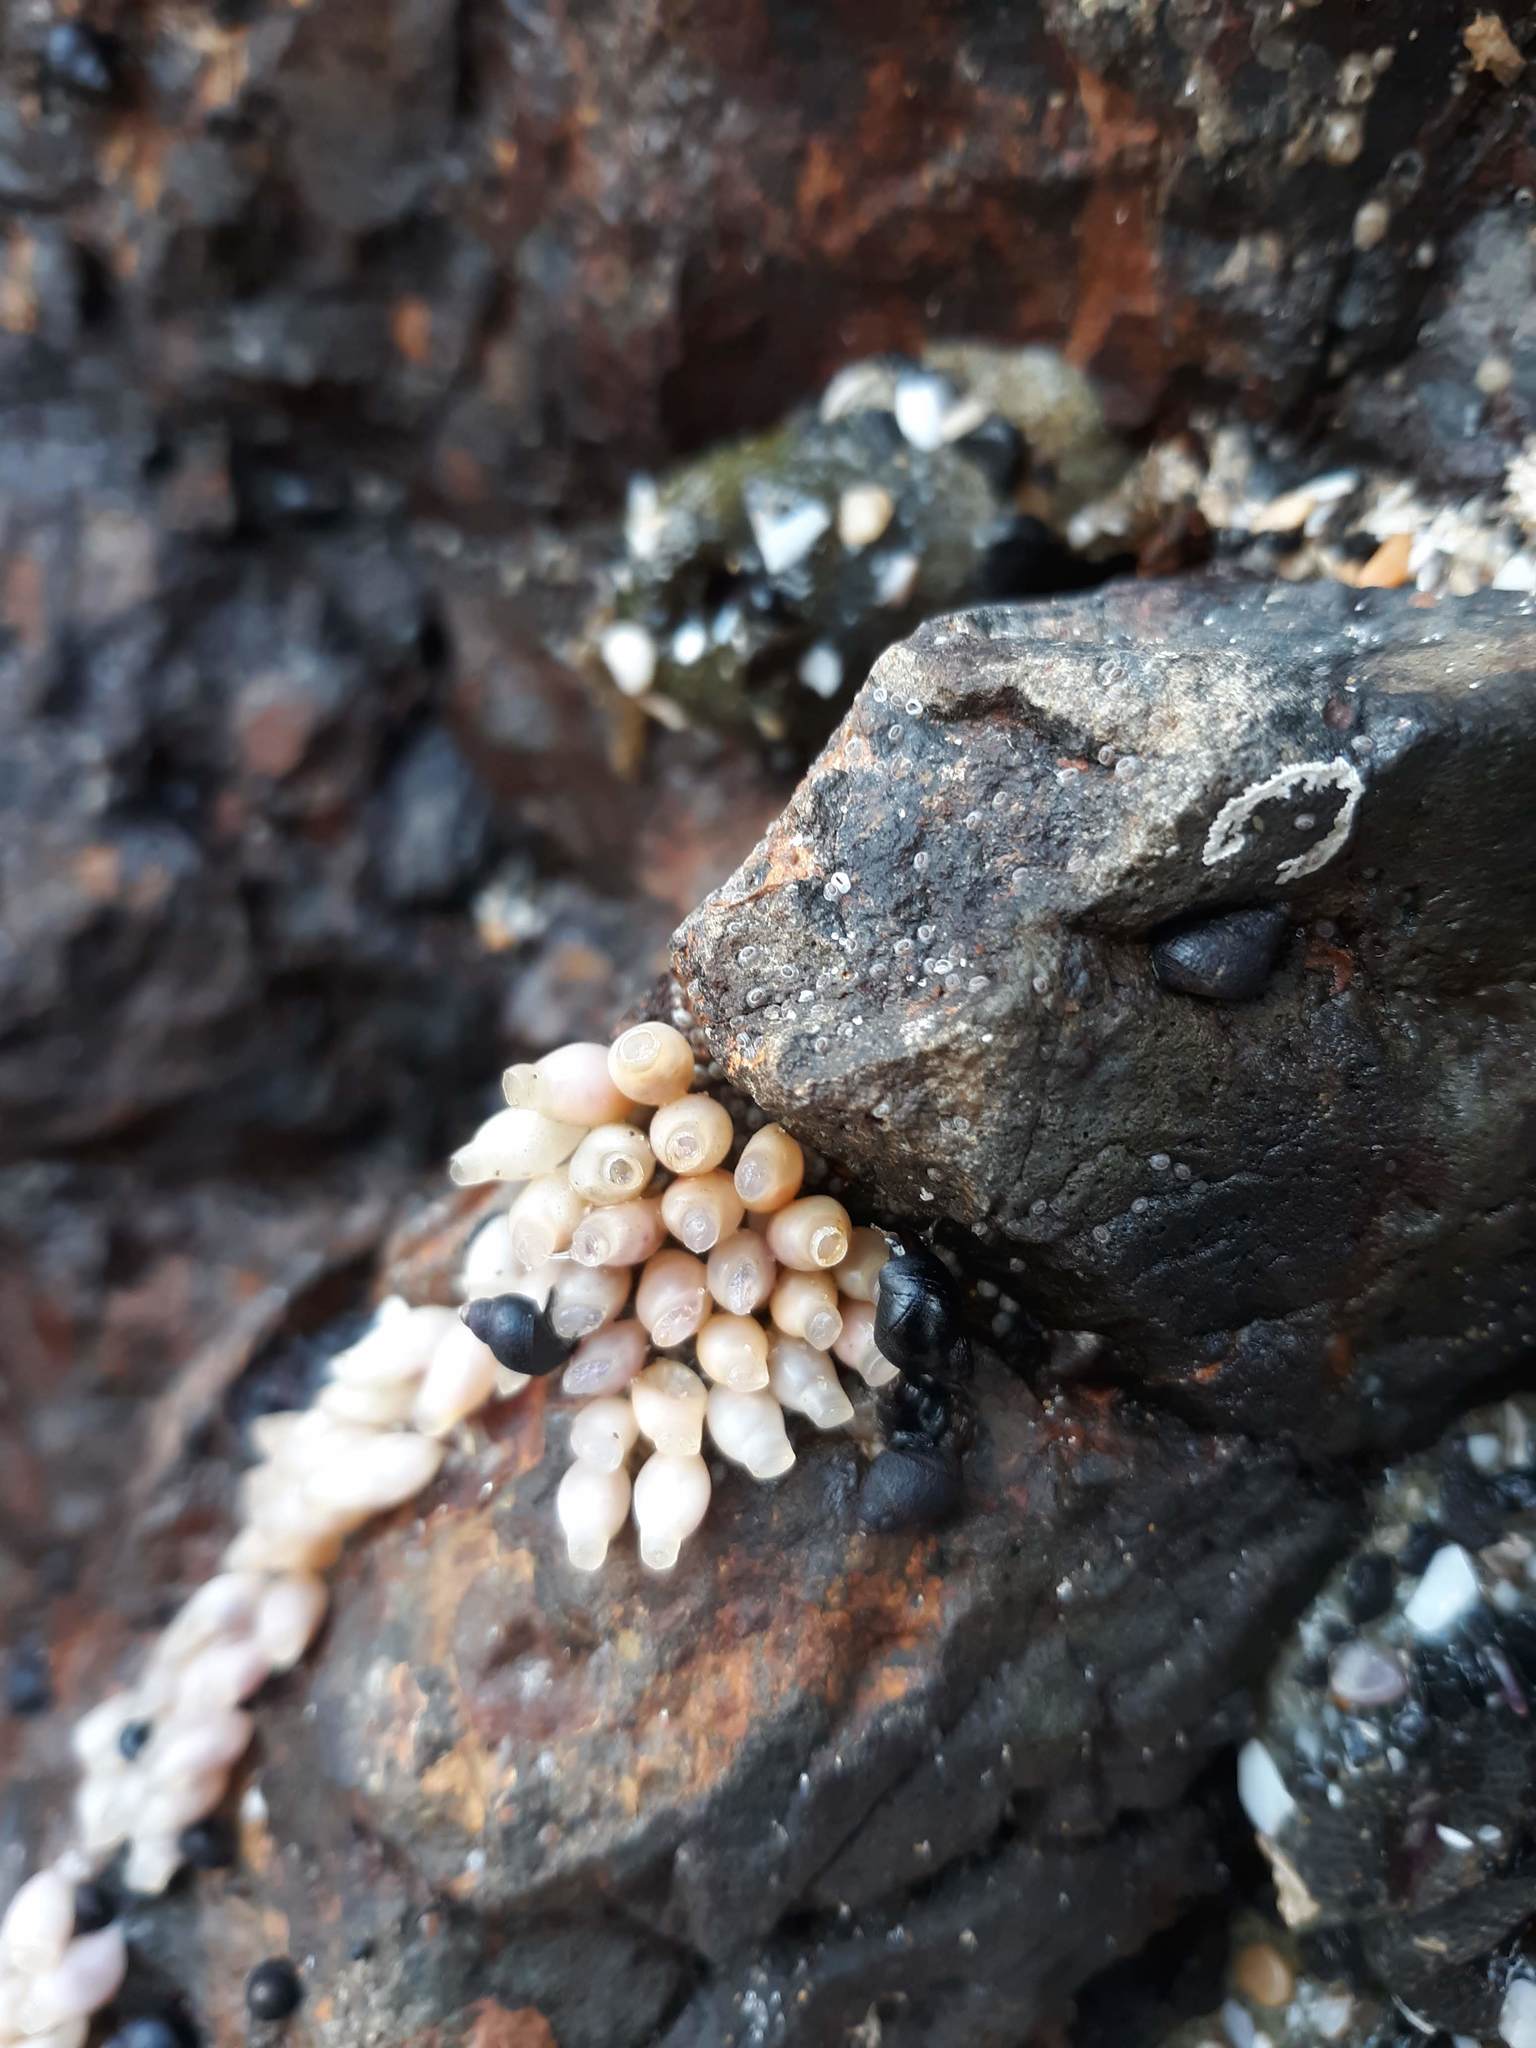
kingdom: Animalia
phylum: Mollusca
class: Gastropoda
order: Neogastropoda
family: Muricidae
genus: Nucella
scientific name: Nucella ostrina
